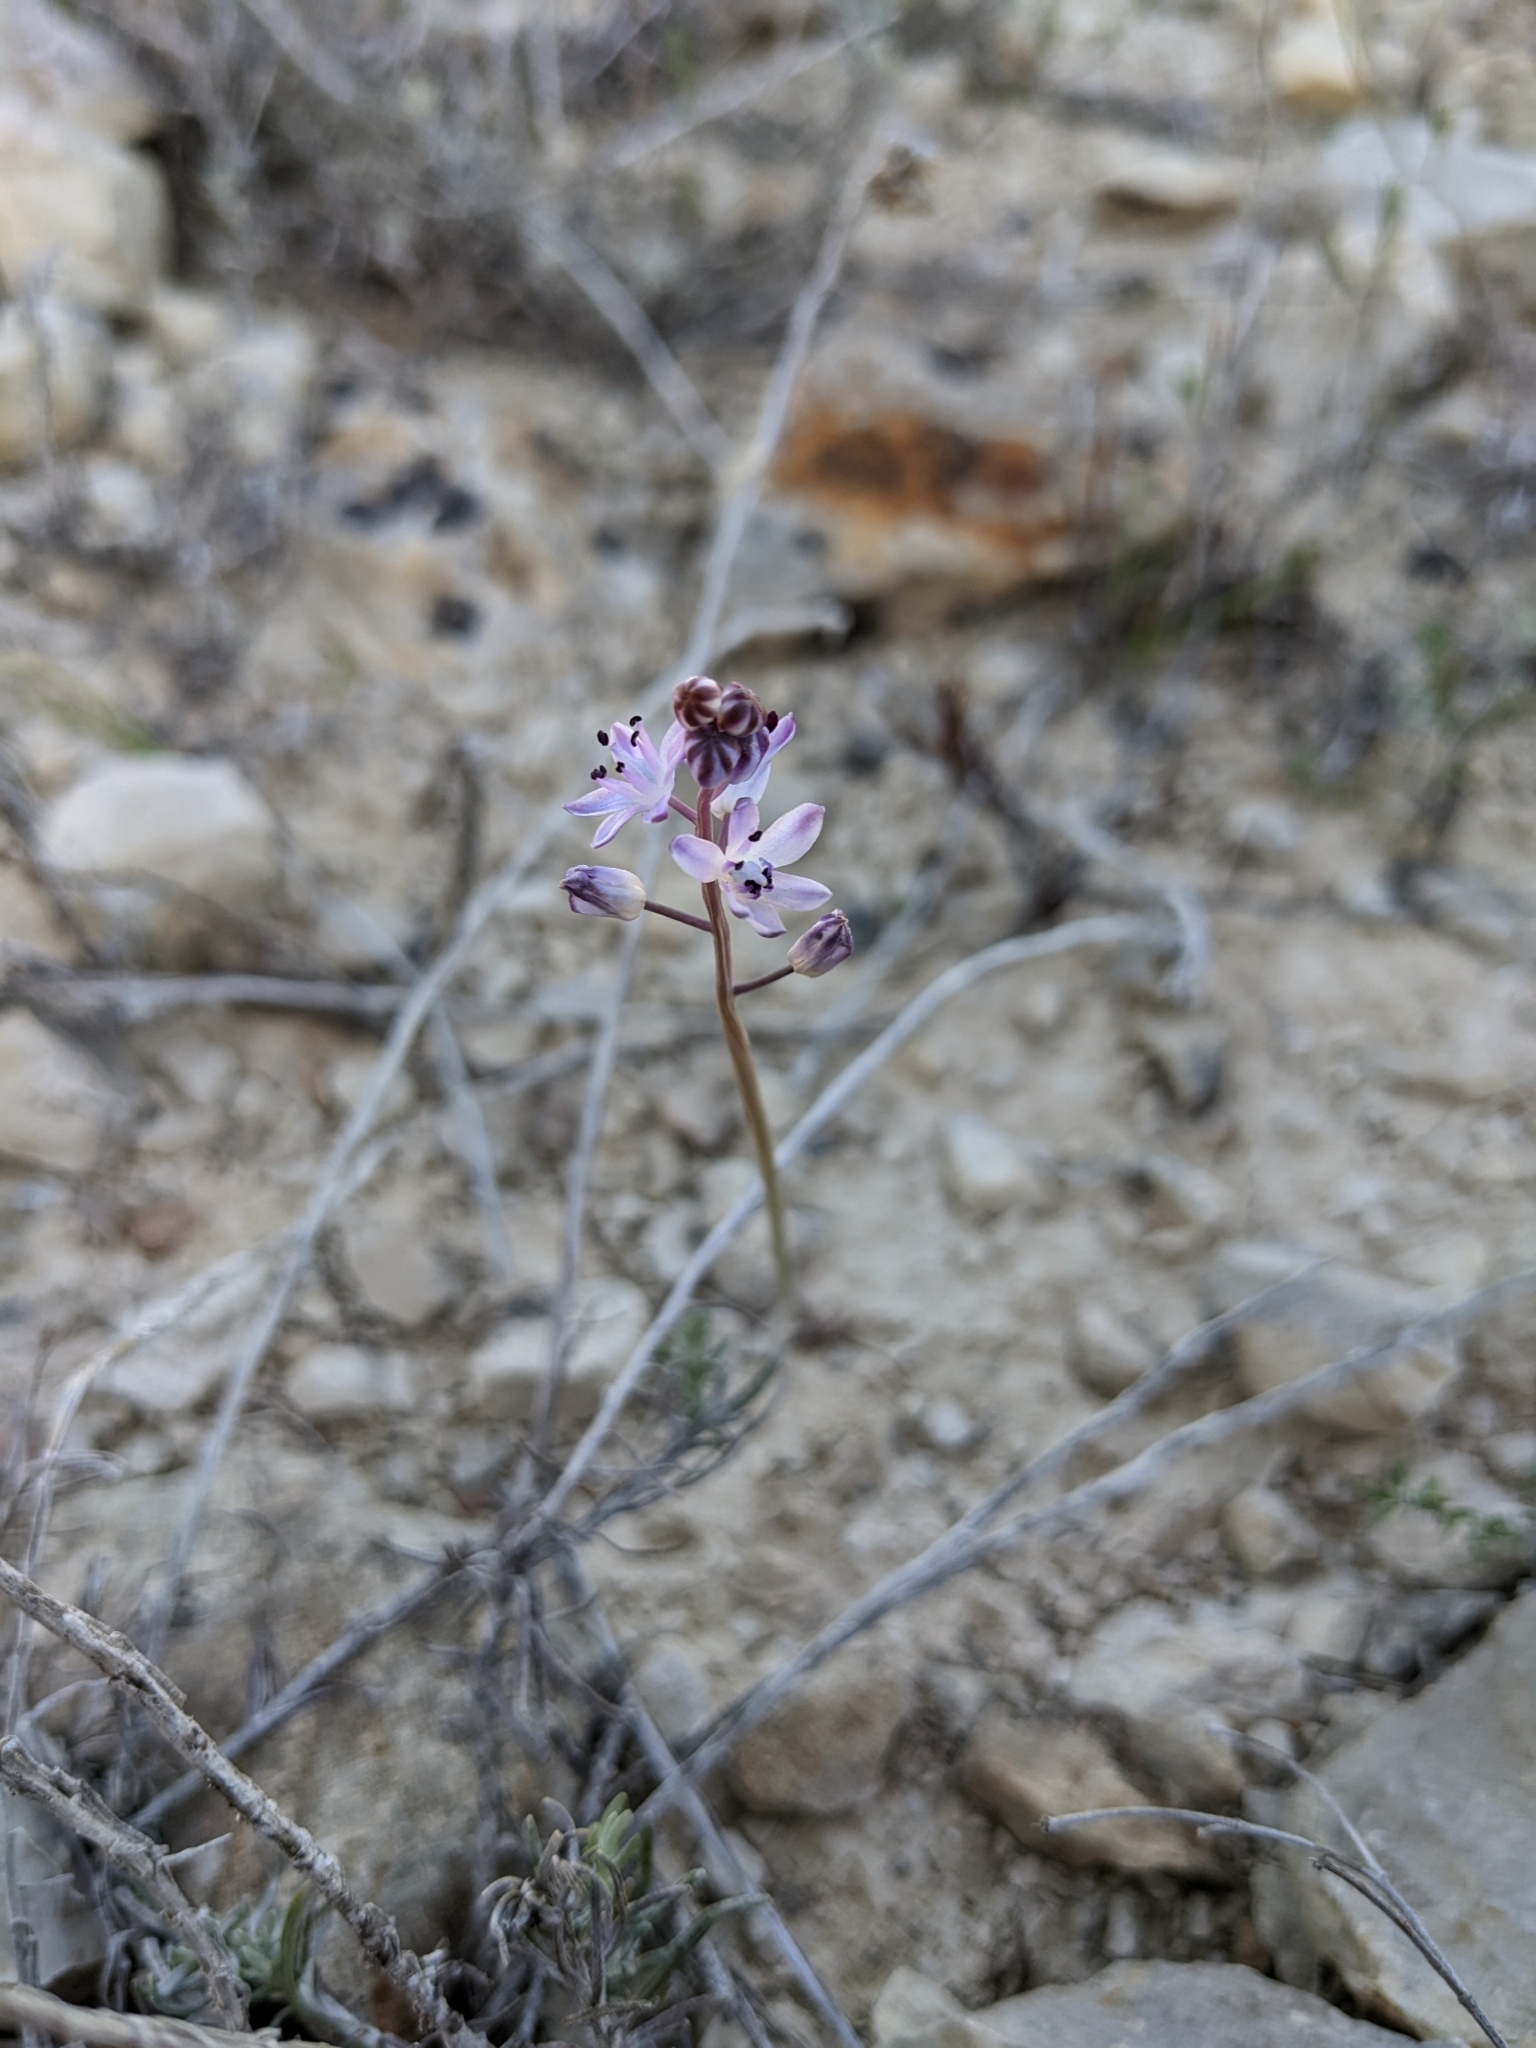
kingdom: Plantae
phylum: Tracheophyta
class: Liliopsida
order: Asparagales
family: Asparagaceae
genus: Prospero
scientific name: Prospero autumnale
